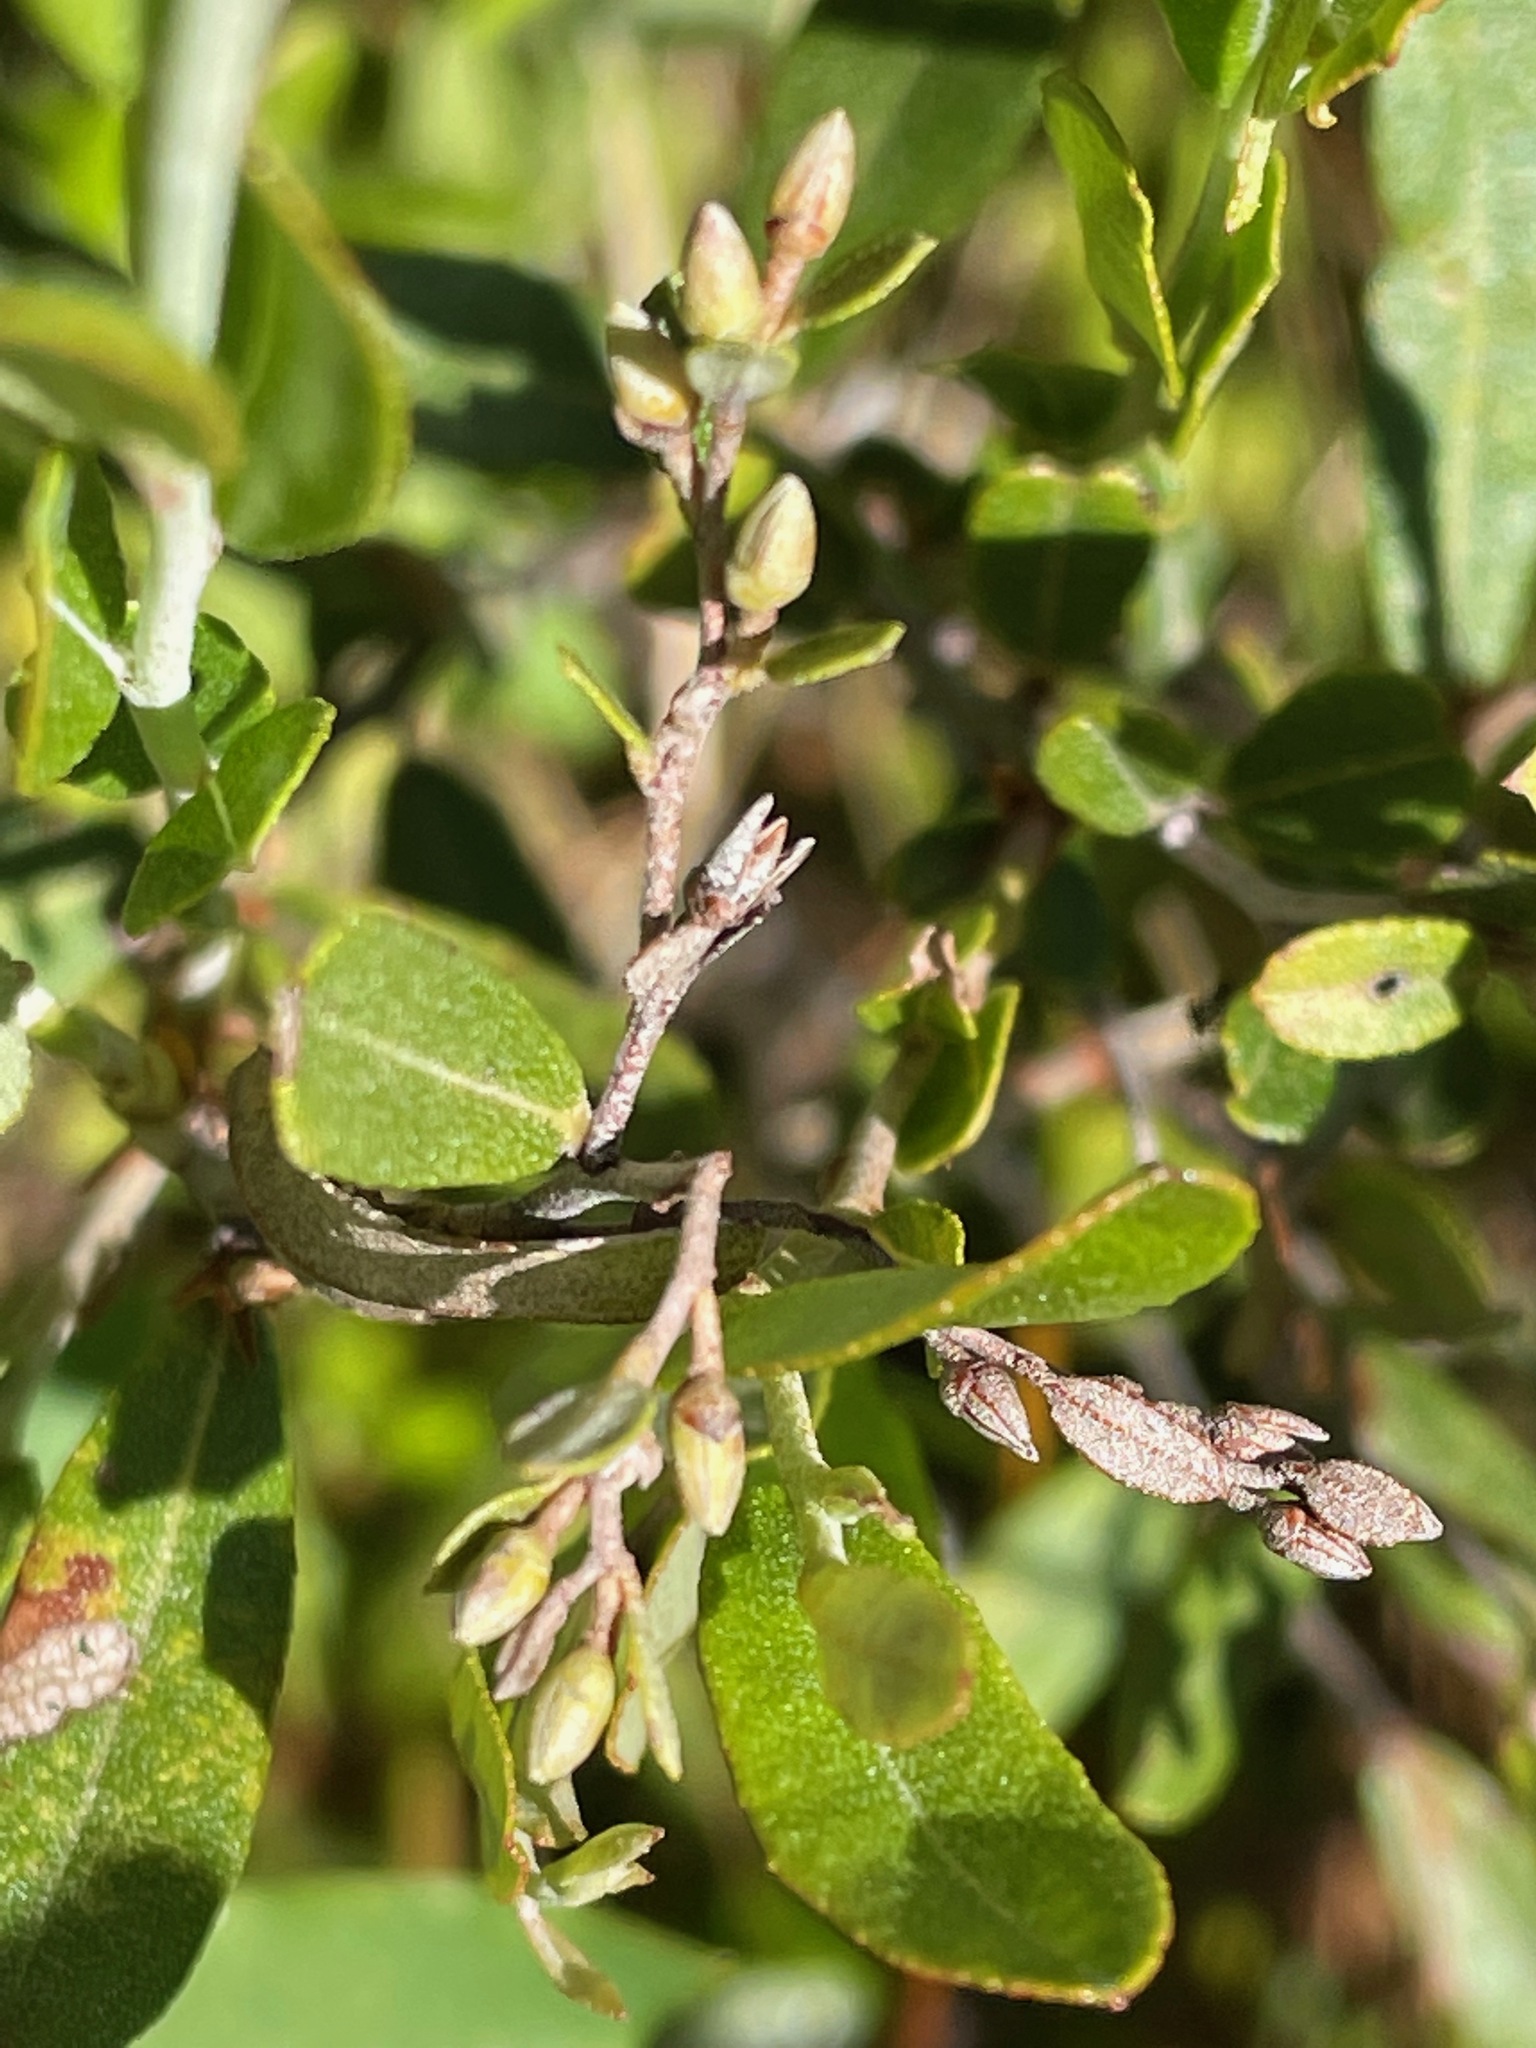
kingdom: Plantae
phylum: Tracheophyta
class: Magnoliopsida
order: Ericales
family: Ericaceae
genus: Chamaedaphne
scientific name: Chamaedaphne calyculata
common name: Leatherleaf
